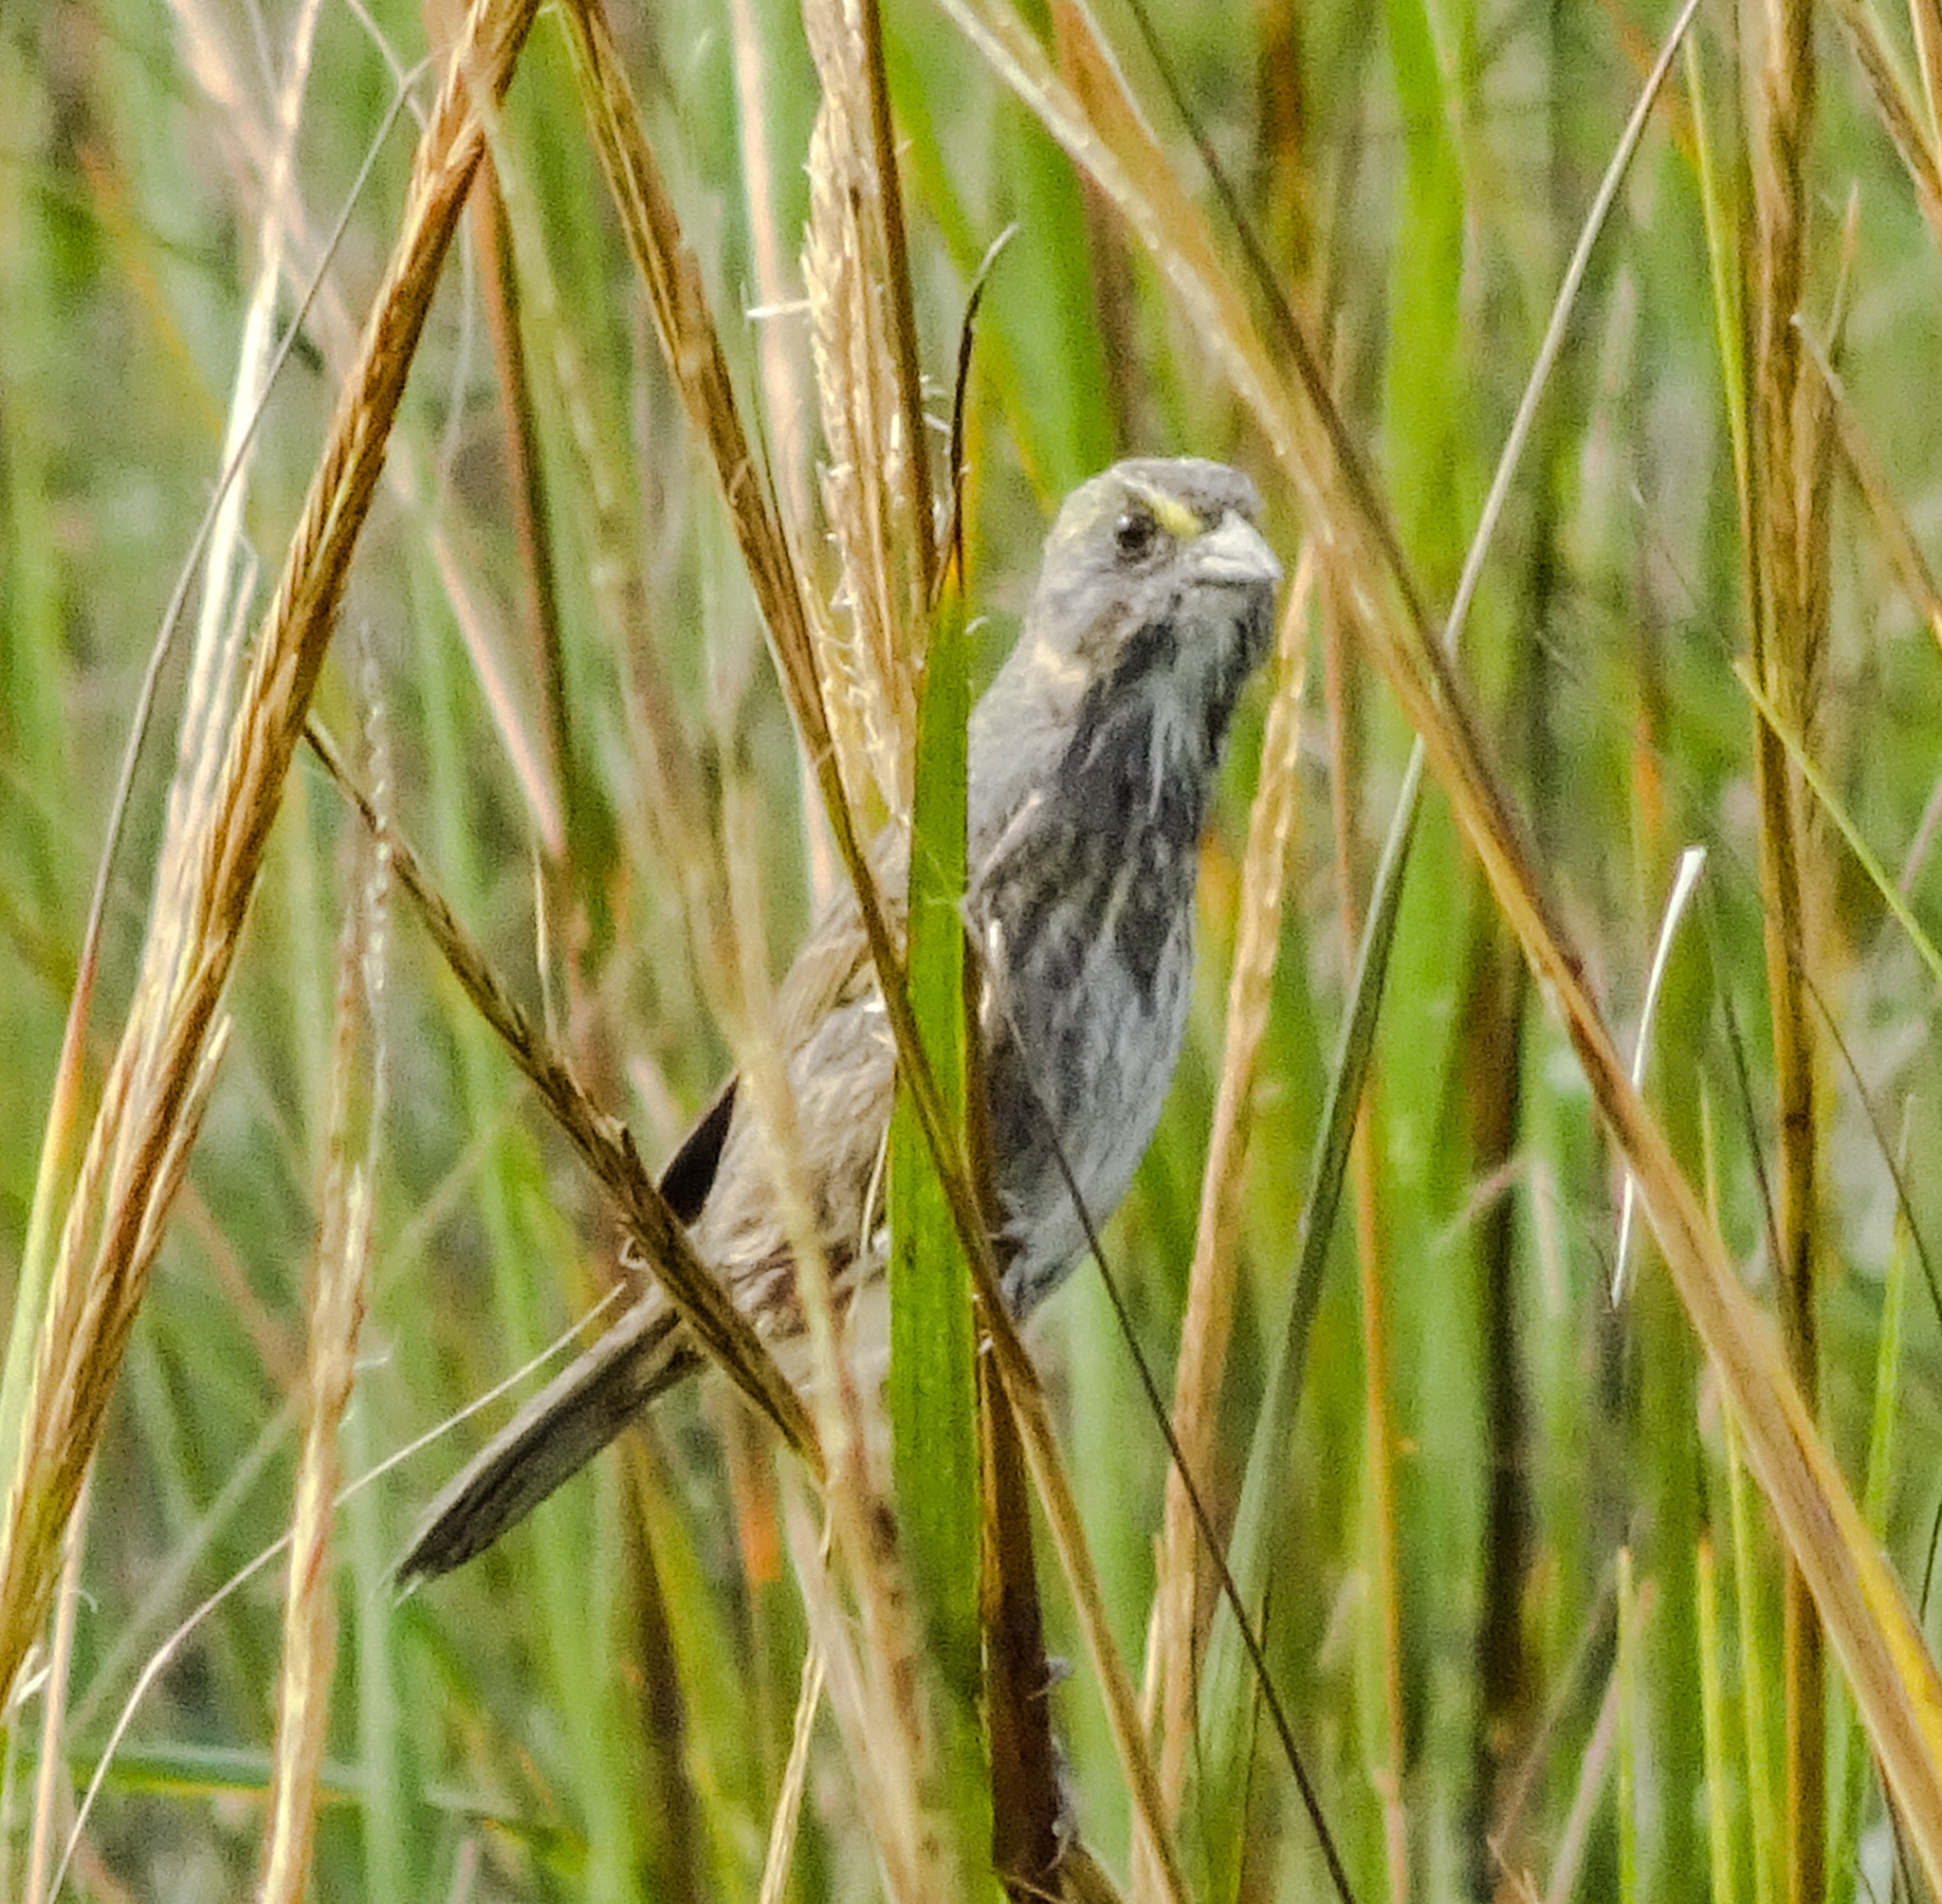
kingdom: Animalia
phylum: Chordata
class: Aves
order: Passeriformes
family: Passerellidae
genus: Ammospiza
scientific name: Ammospiza maritima
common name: Seaside sparrow
